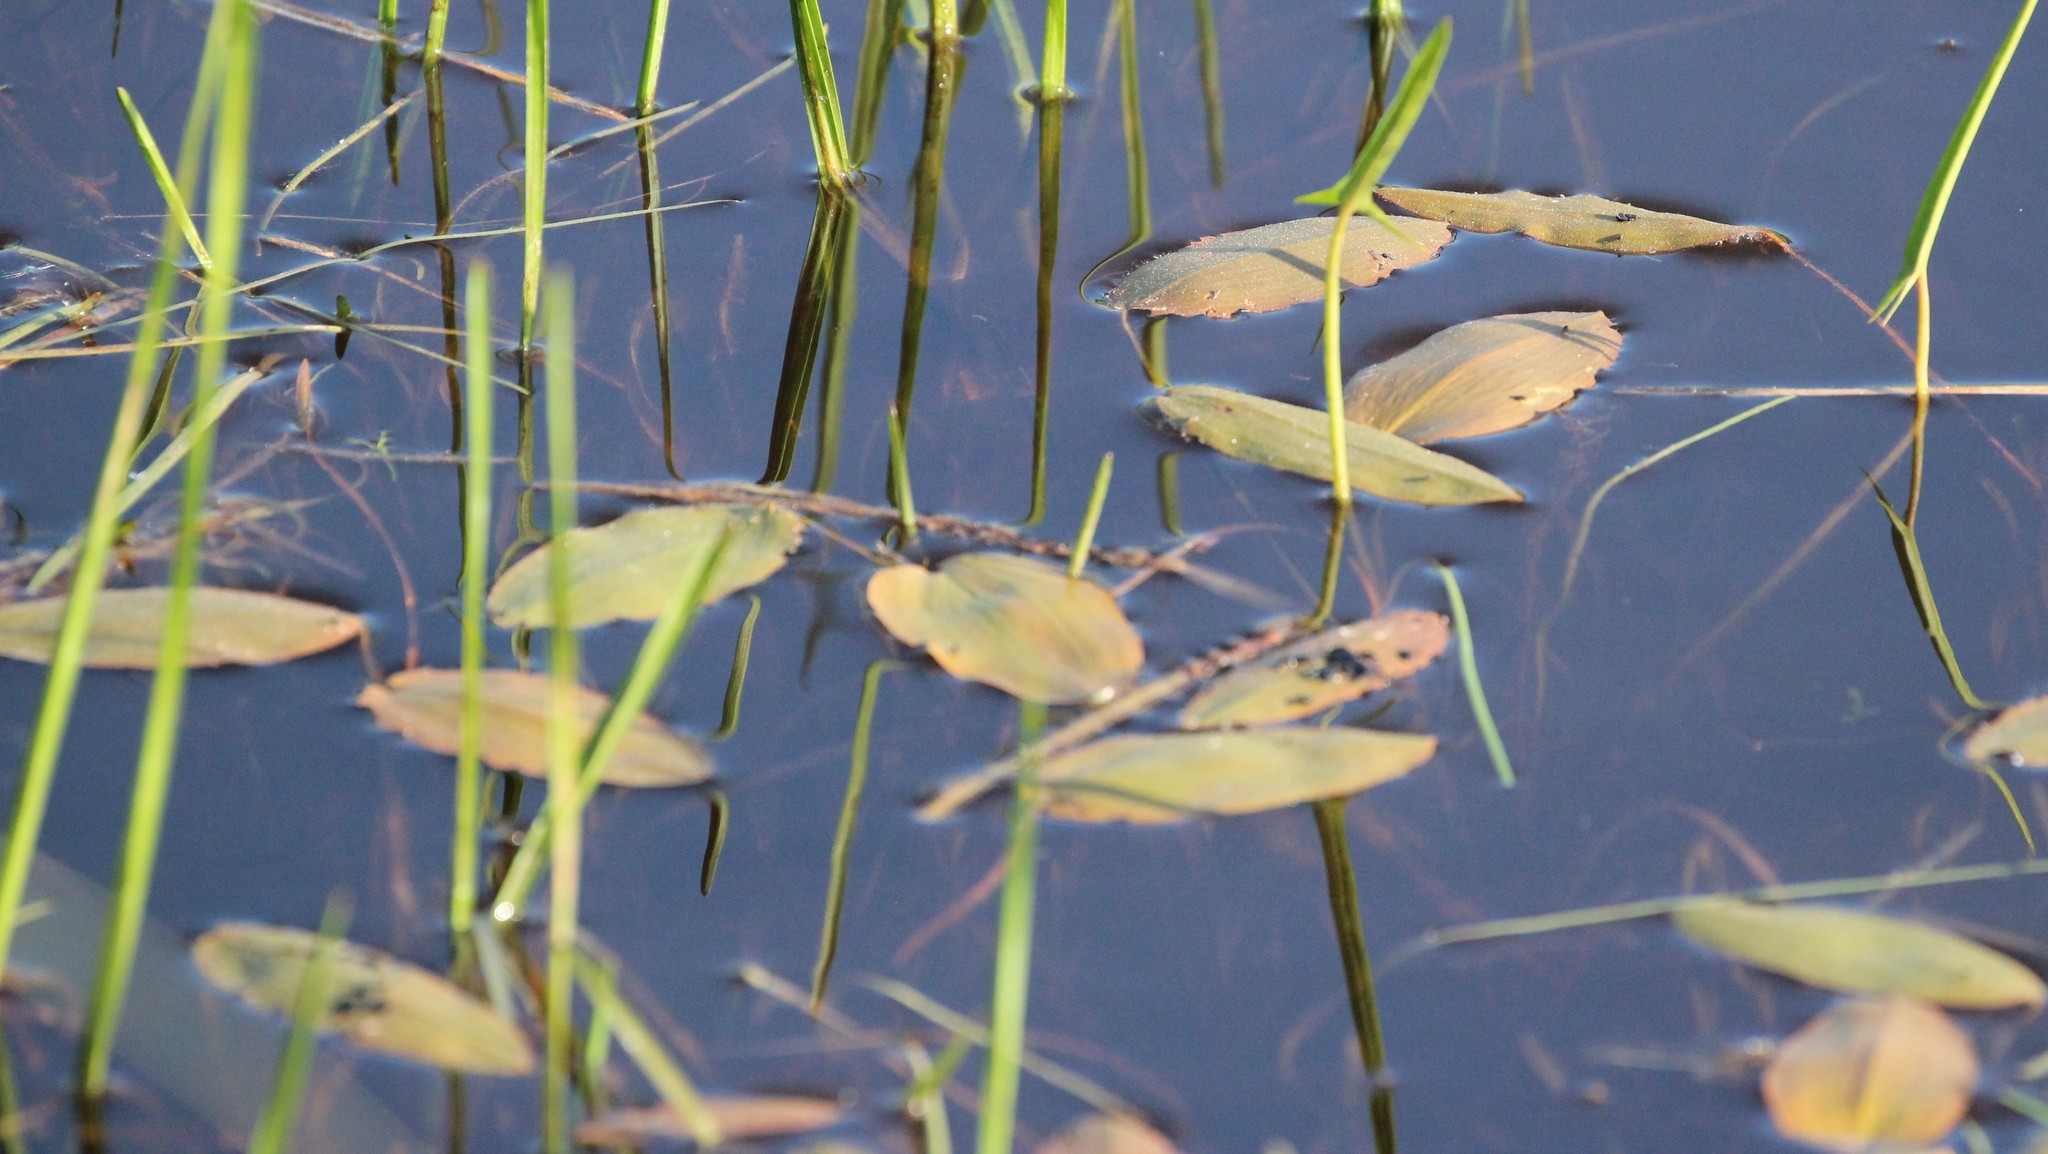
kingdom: Plantae
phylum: Tracheophyta
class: Liliopsida
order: Alismatales
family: Potamogetonaceae
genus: Potamogeton
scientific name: Potamogeton natans
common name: Broad-leaved pondweed
